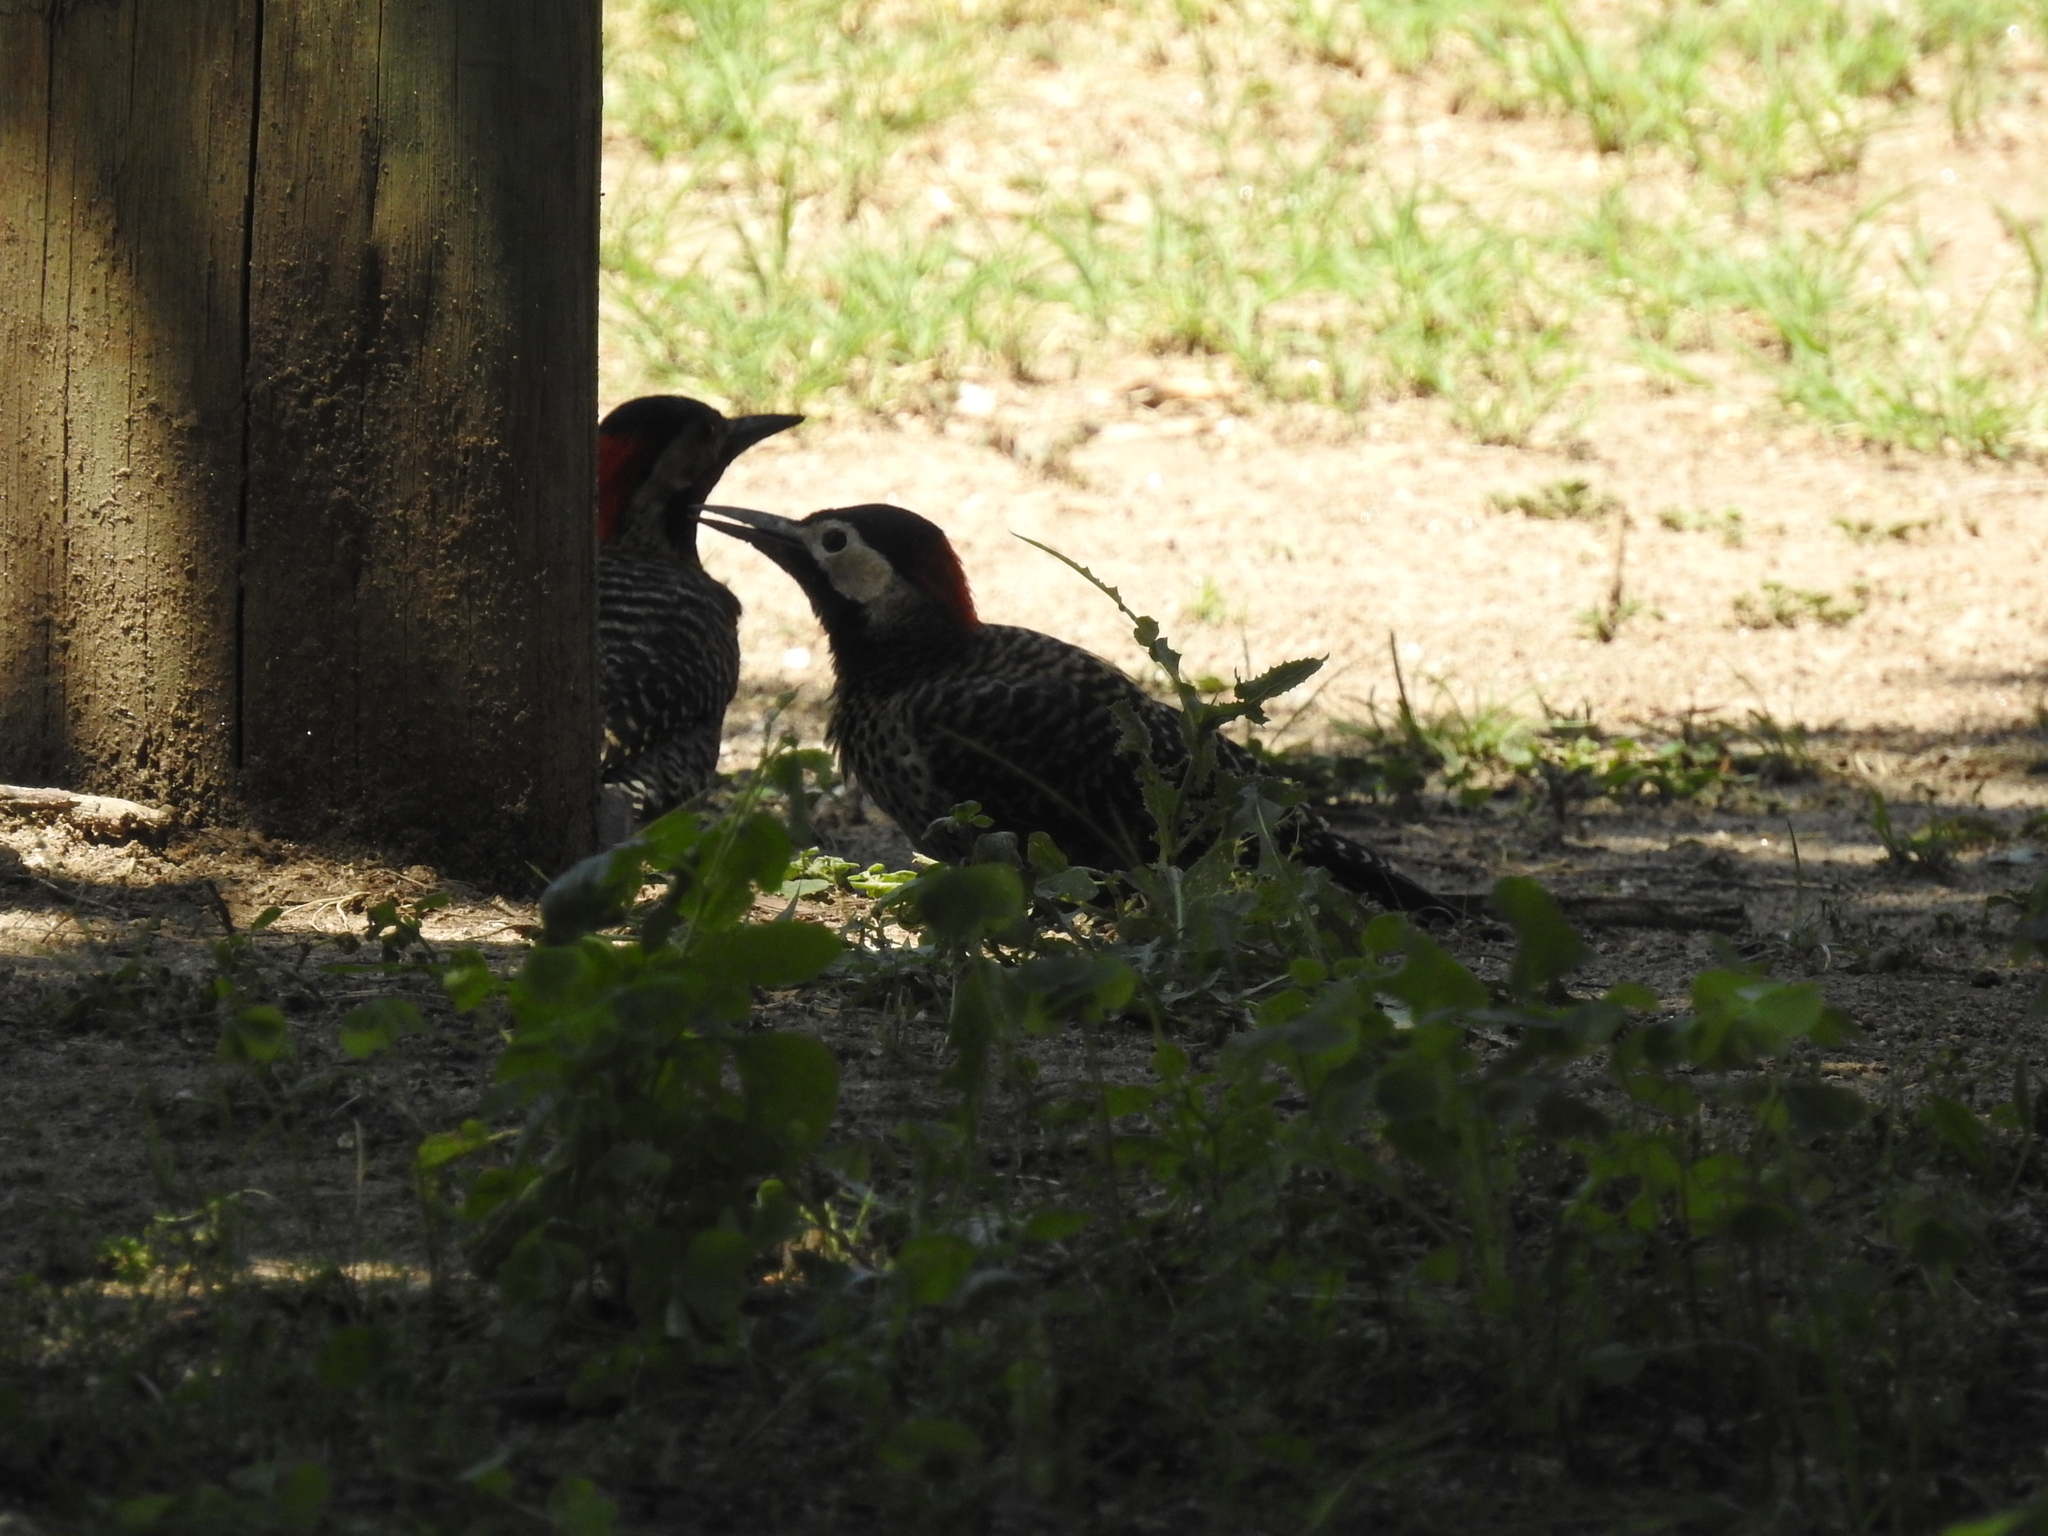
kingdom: Animalia
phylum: Chordata
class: Aves
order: Piciformes
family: Picidae
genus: Colaptes
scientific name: Colaptes melanochloros
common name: Green-barred woodpecker
